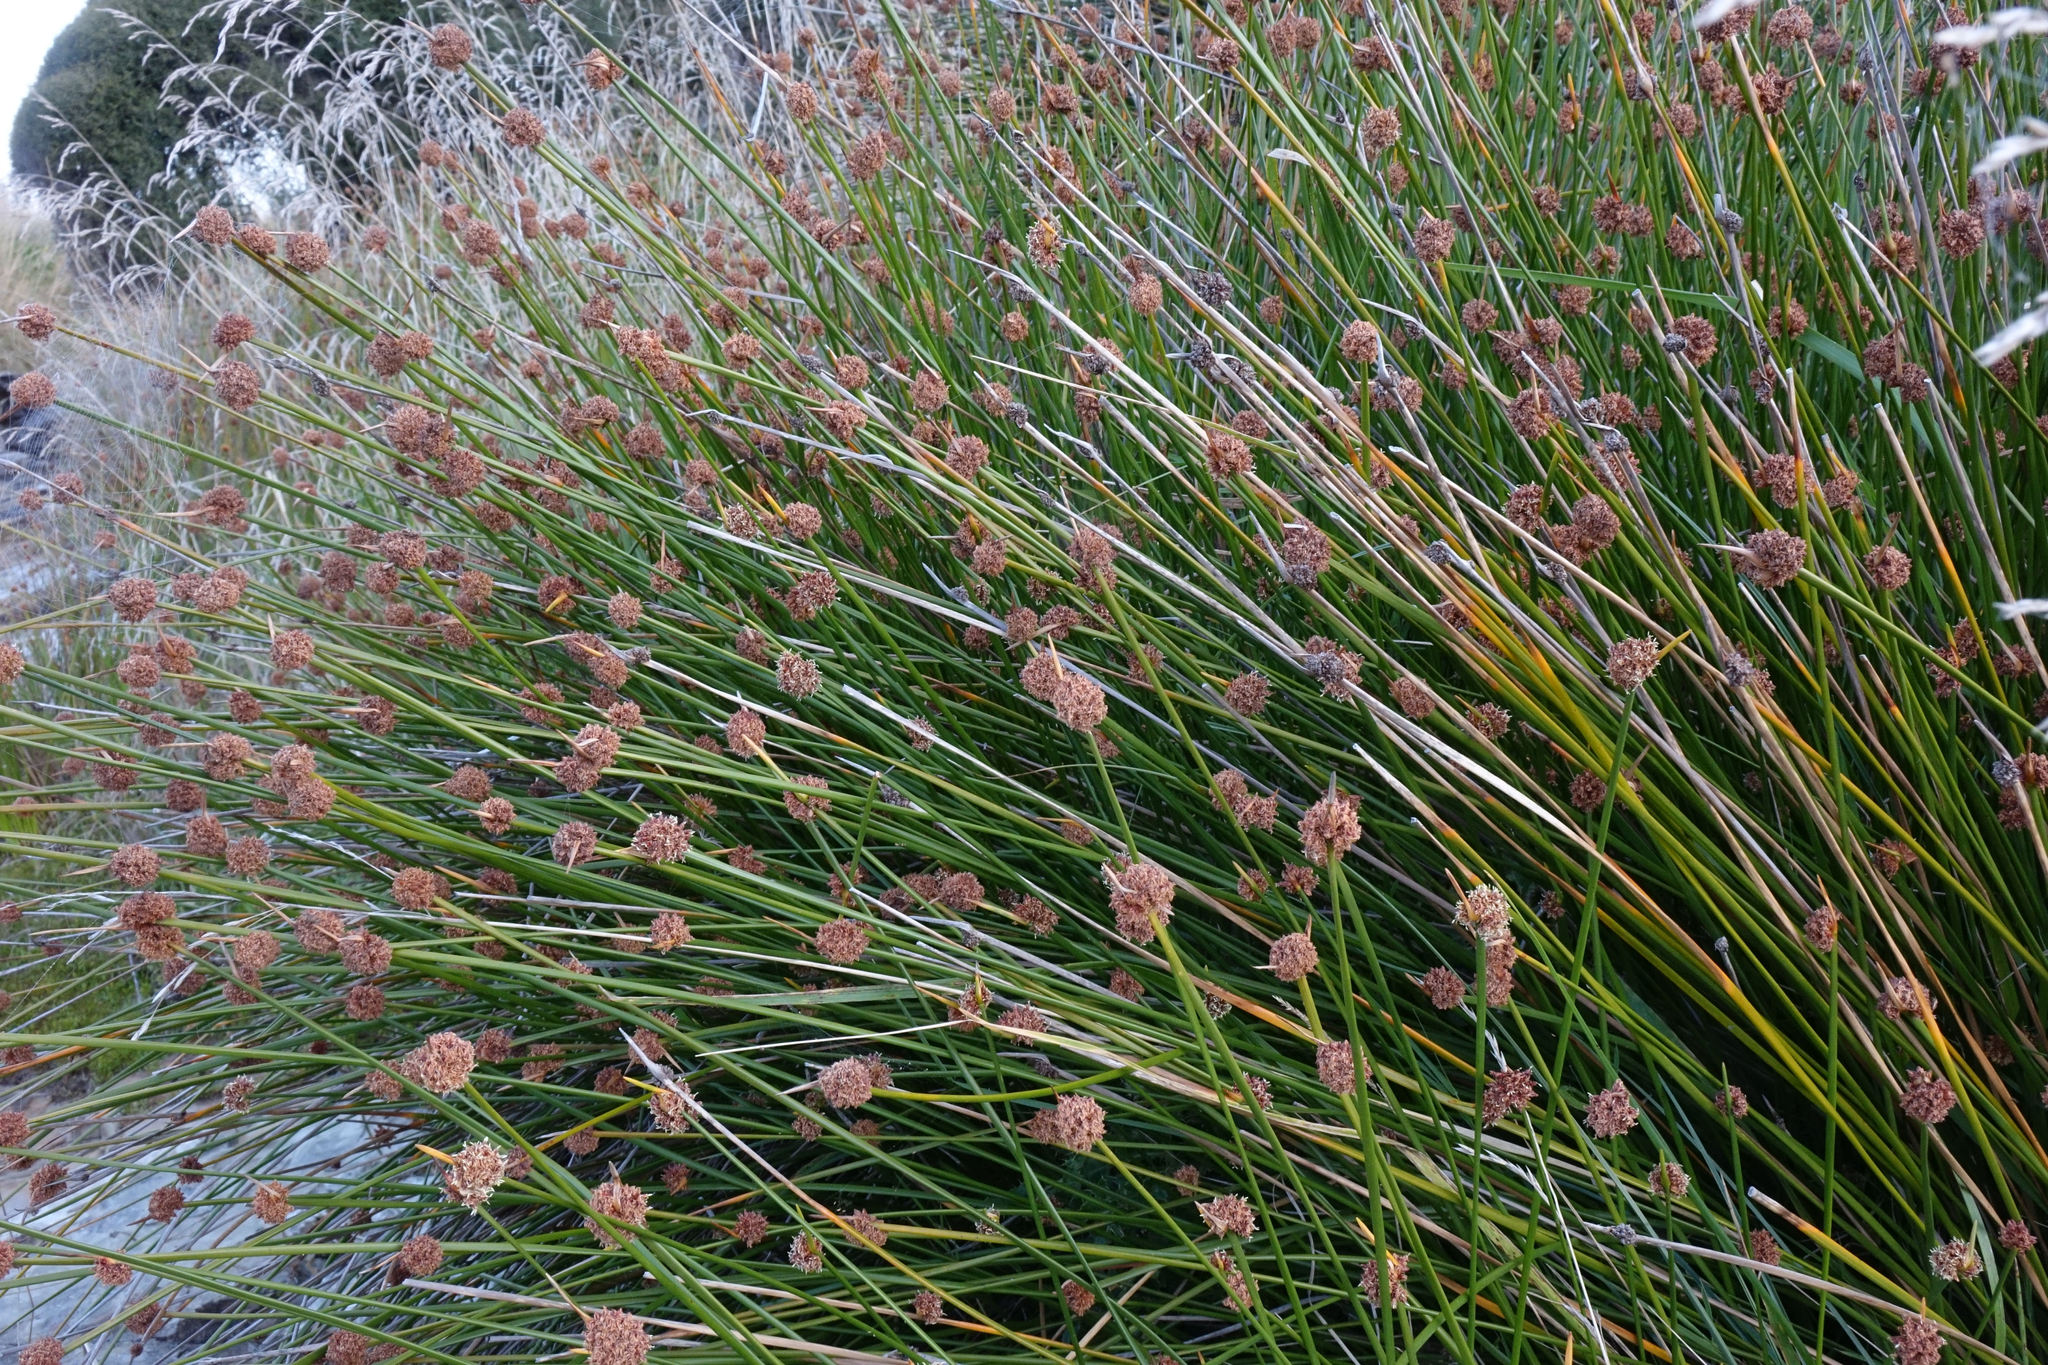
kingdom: Plantae
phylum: Tracheophyta
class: Liliopsida
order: Poales
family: Cyperaceae
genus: Ficinia
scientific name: Ficinia nodosa
